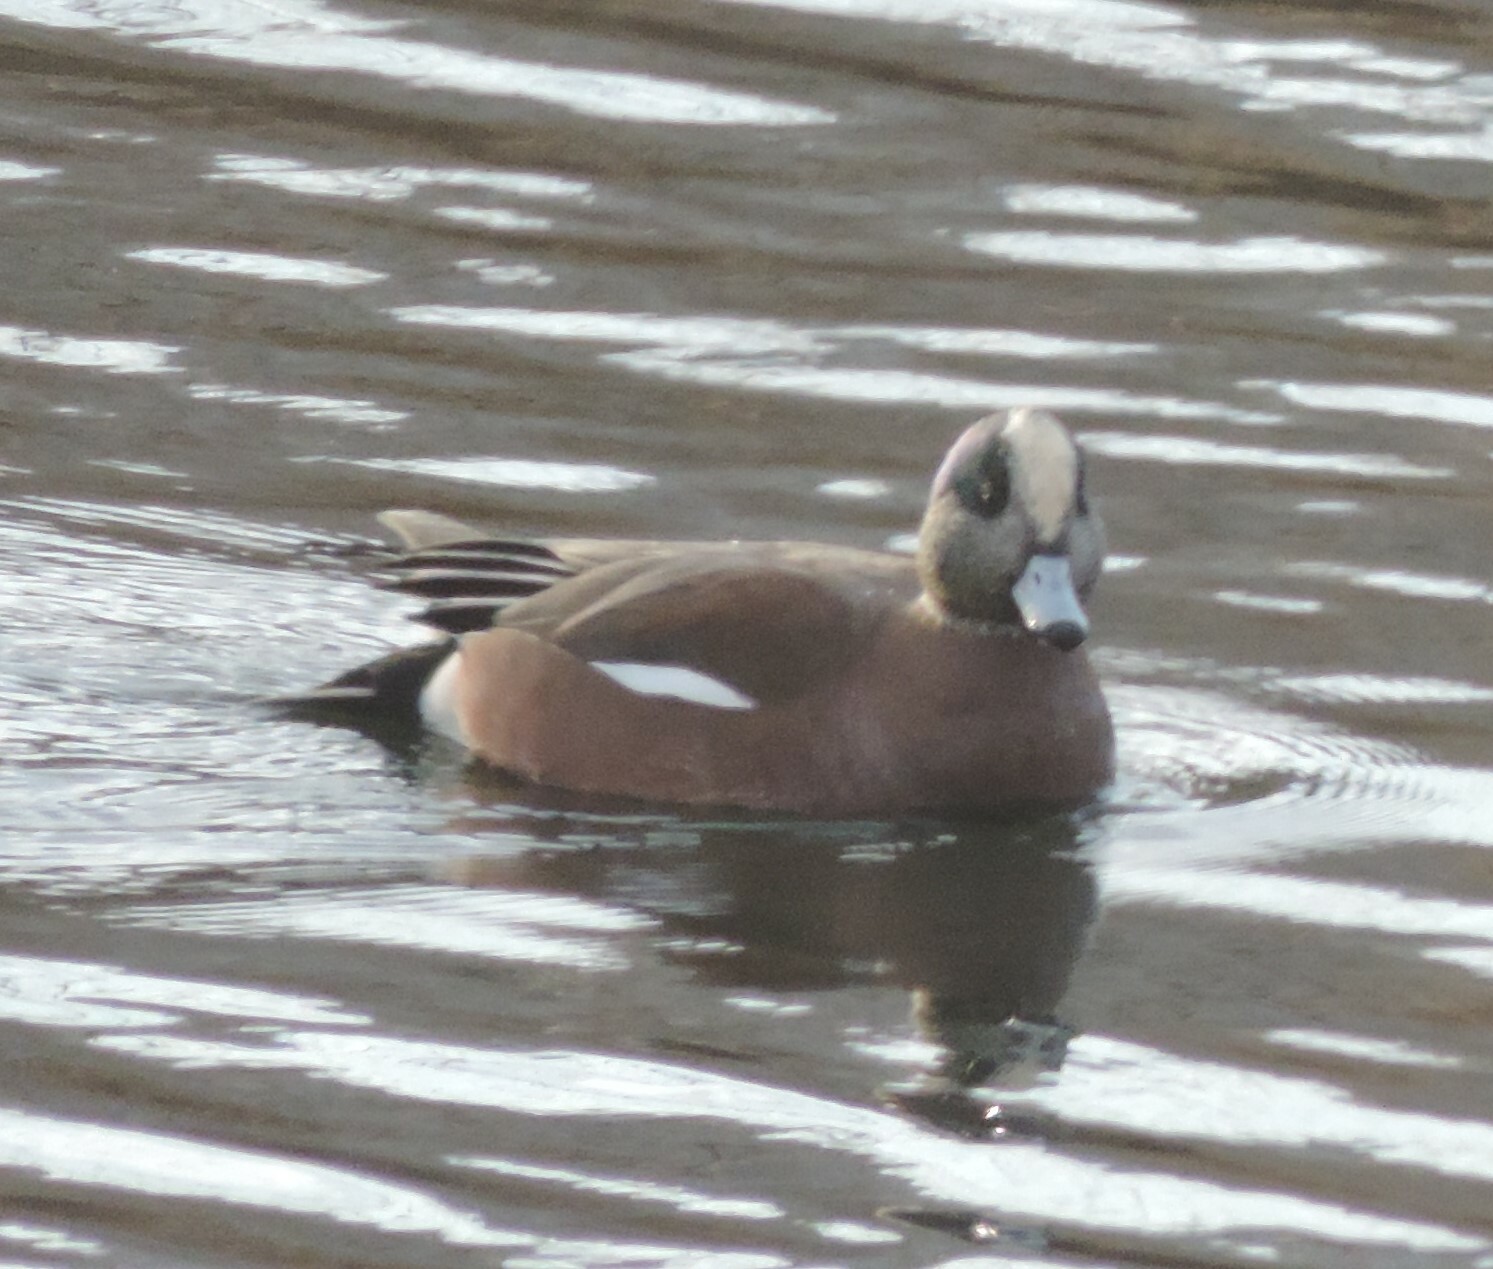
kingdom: Animalia
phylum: Chordata
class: Aves
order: Anseriformes
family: Anatidae
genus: Mareca
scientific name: Mareca americana
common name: American wigeon
